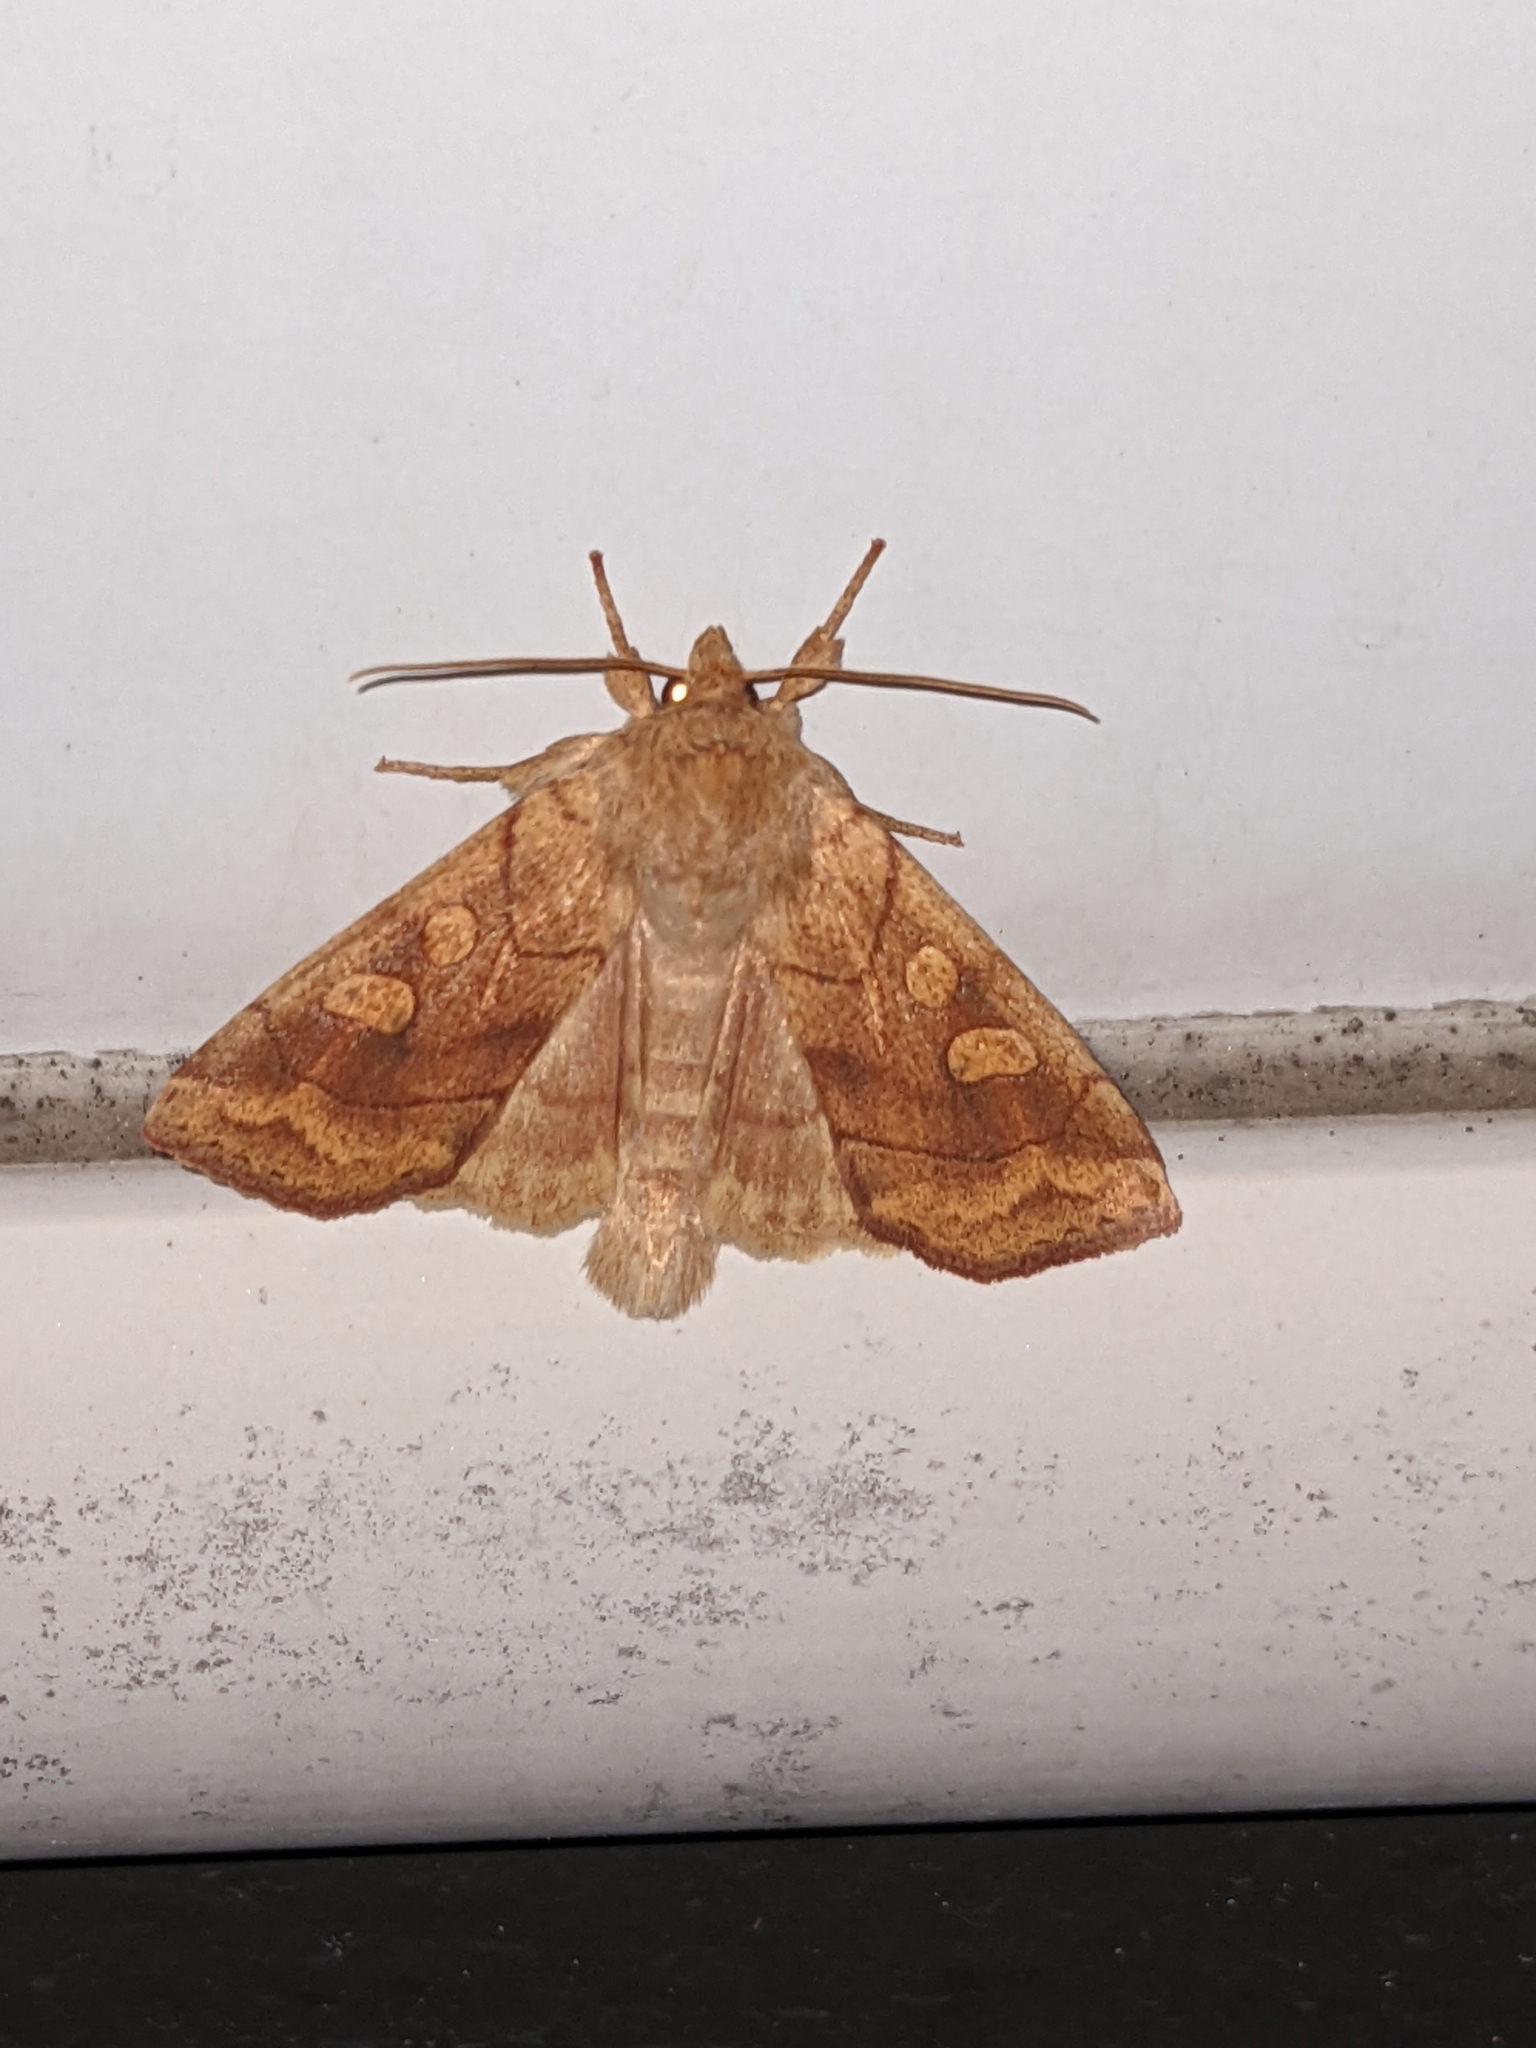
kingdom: Animalia
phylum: Arthropoda
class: Insecta
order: Lepidoptera
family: Noctuidae
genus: Enargia
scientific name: Enargia decolor
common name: Aspen twoleaf tier moth
